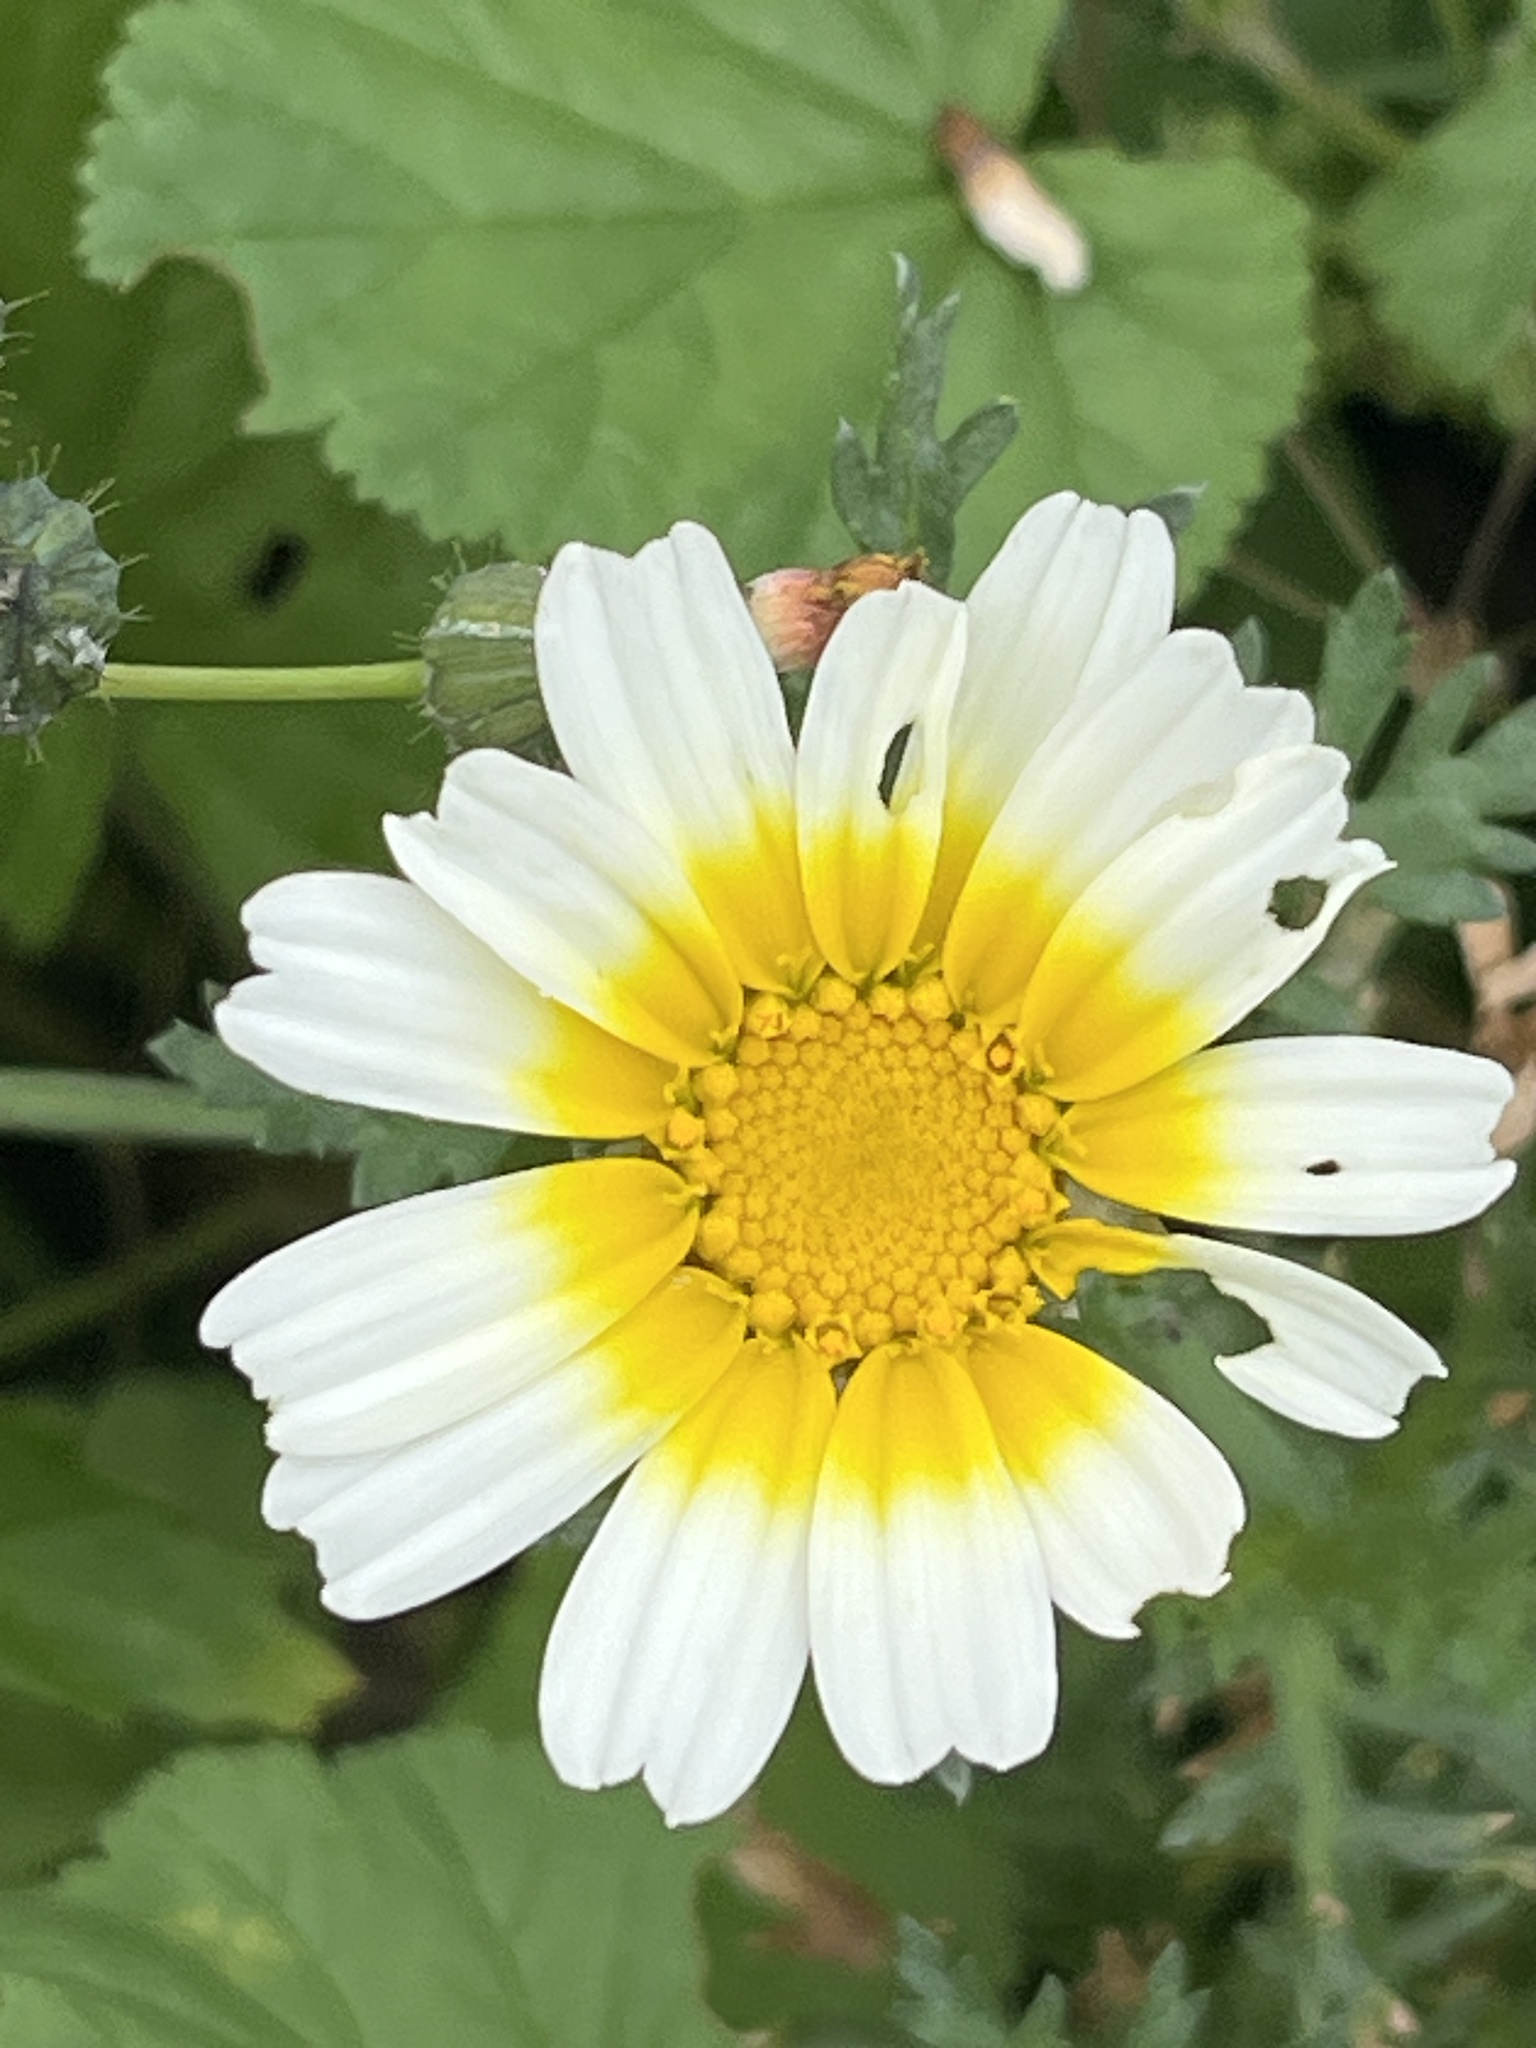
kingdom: Plantae
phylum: Tracheophyta
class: Magnoliopsida
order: Asterales
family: Asteraceae
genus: Glebionis
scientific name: Glebionis coronaria
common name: Crowndaisy
